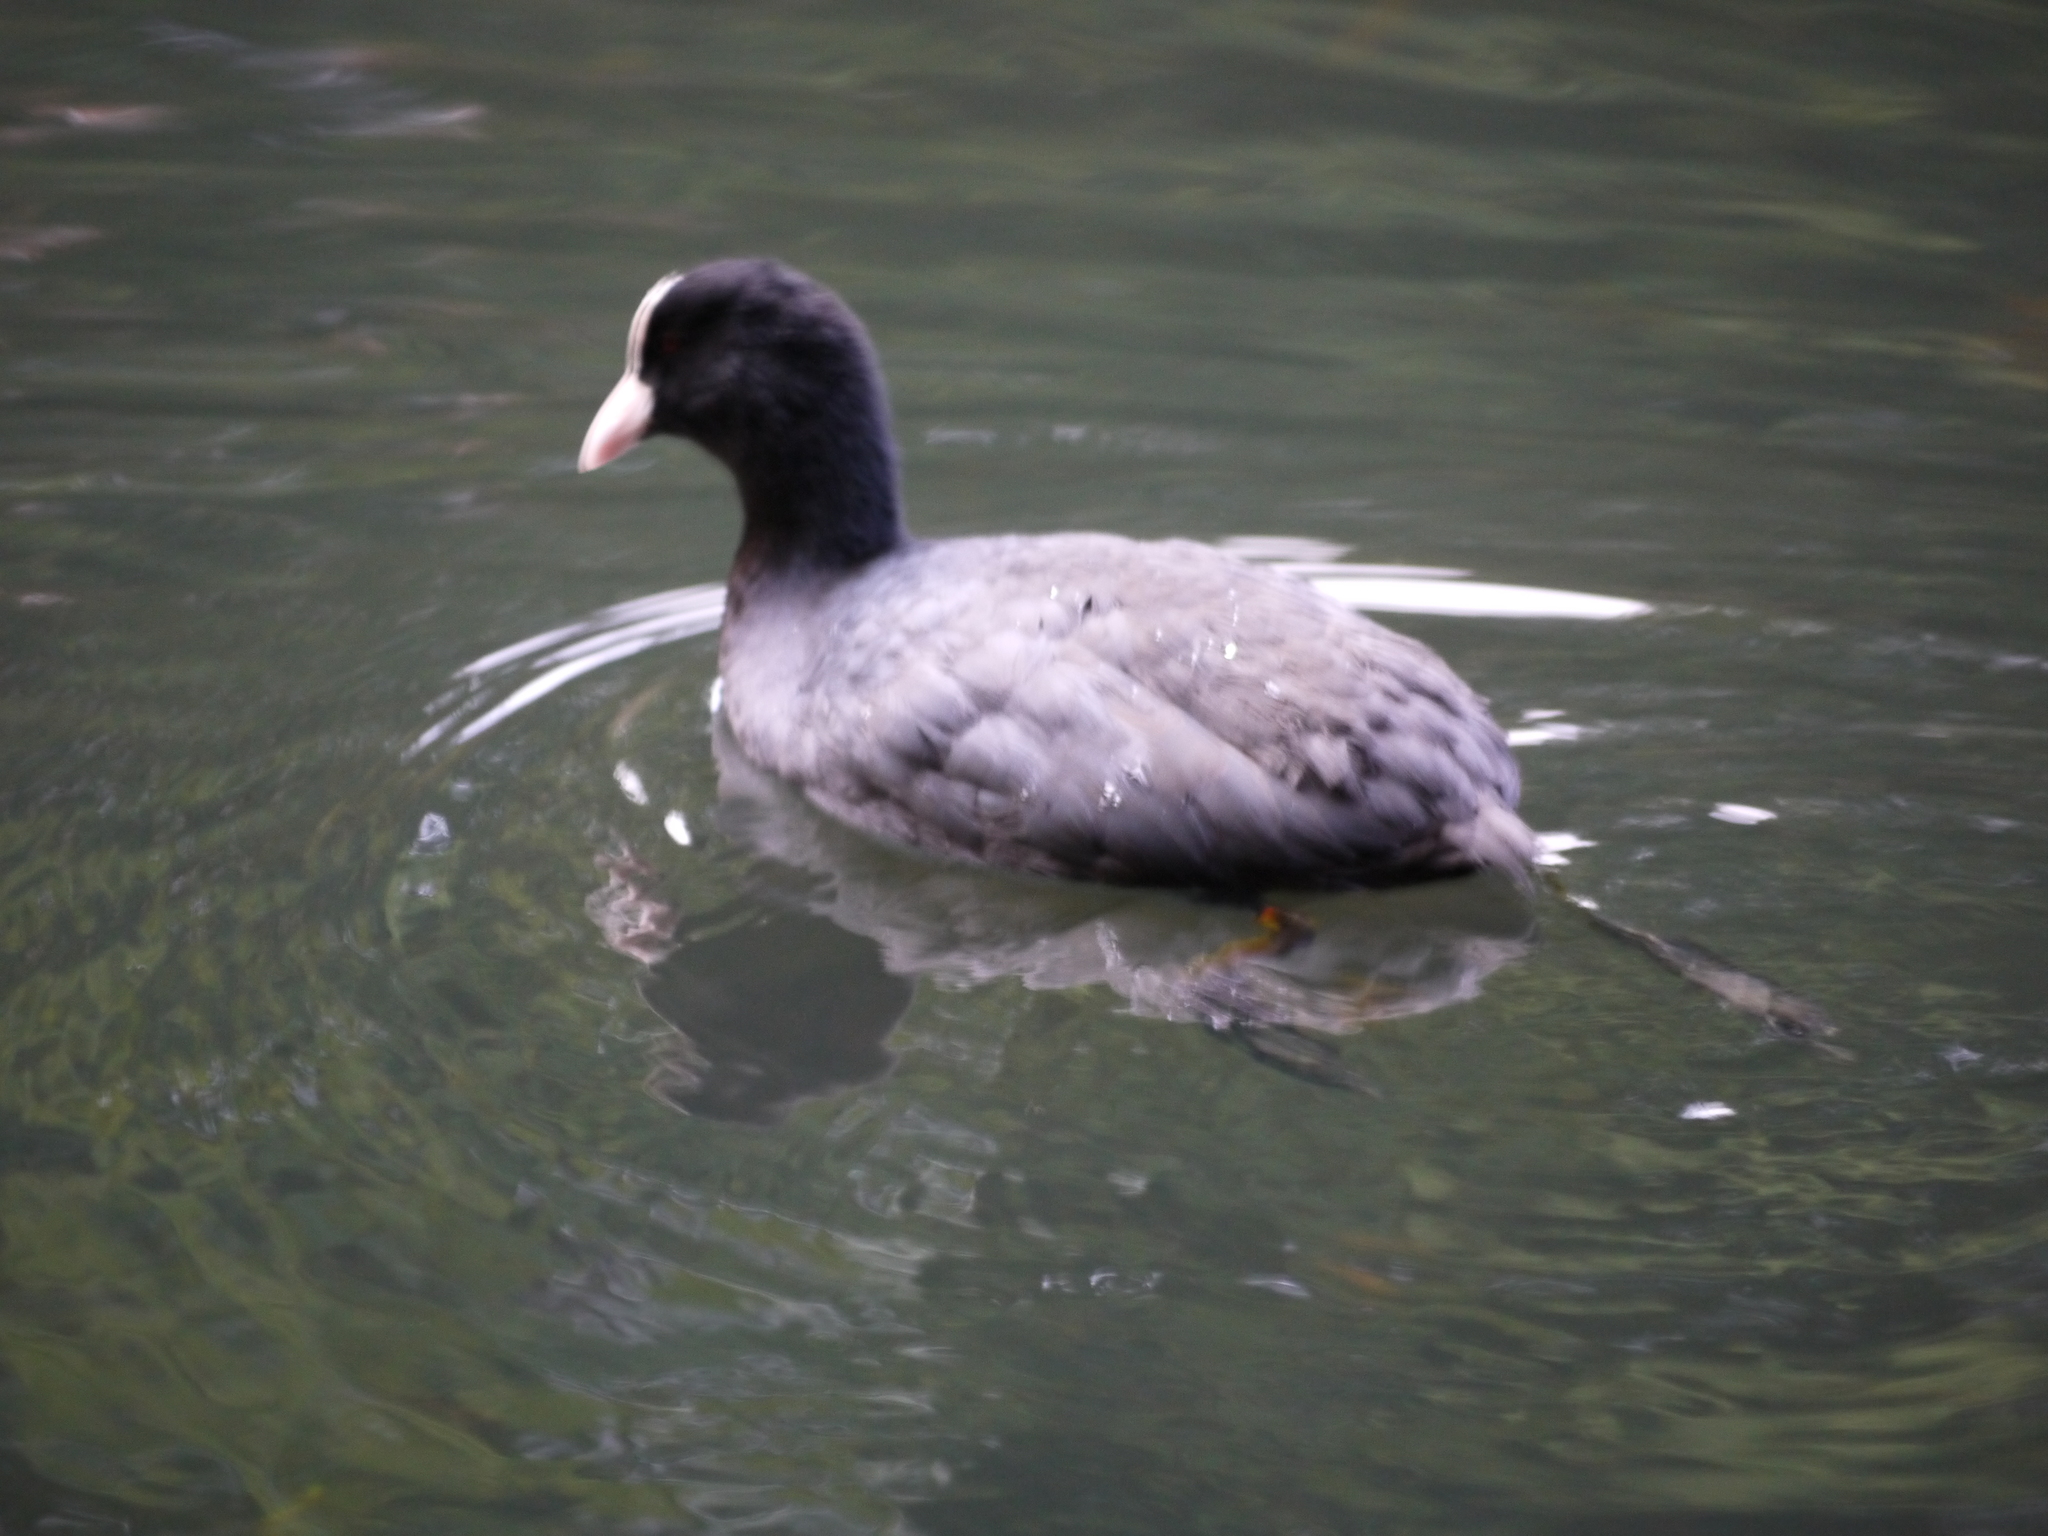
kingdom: Animalia
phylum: Chordata
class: Aves
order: Gruiformes
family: Rallidae
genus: Fulica
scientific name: Fulica atra
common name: Eurasian coot
